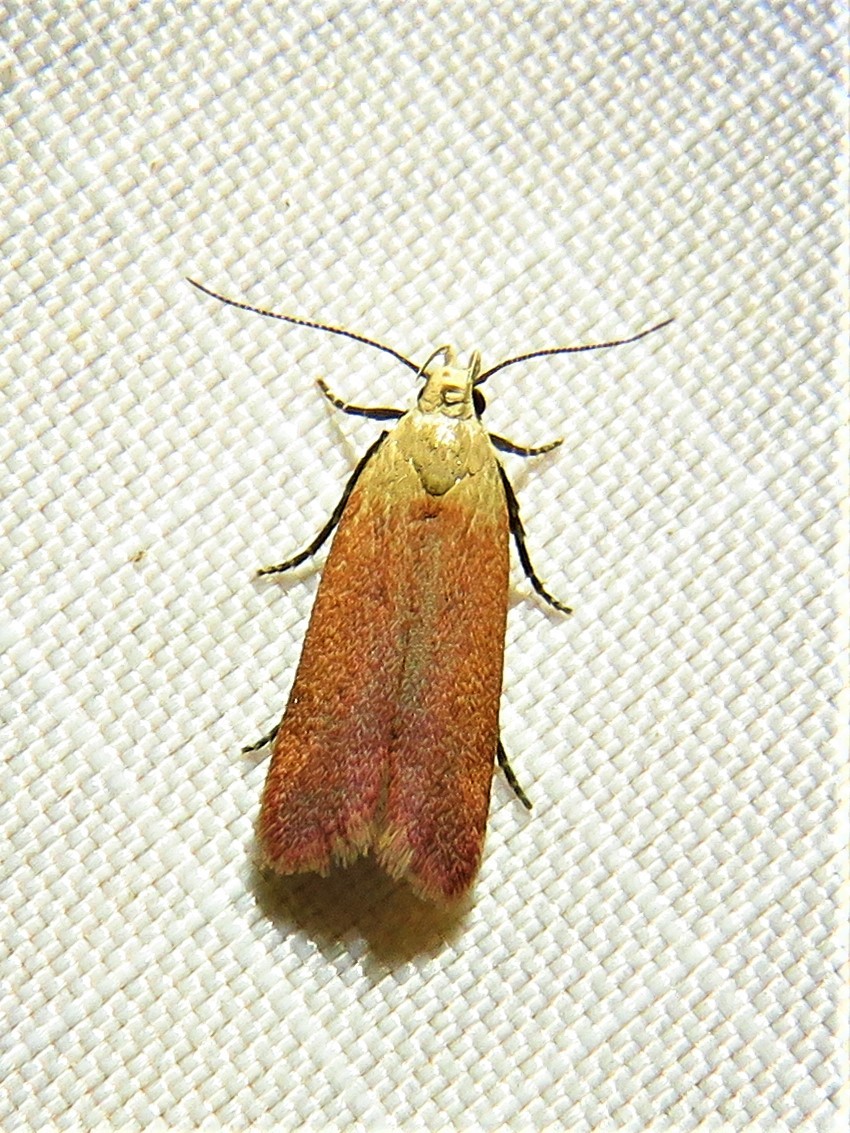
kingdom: Animalia
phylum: Arthropoda
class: Insecta
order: Lepidoptera
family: Gelechiidae
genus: Anacampsis
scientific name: Anacampsis fullonella
